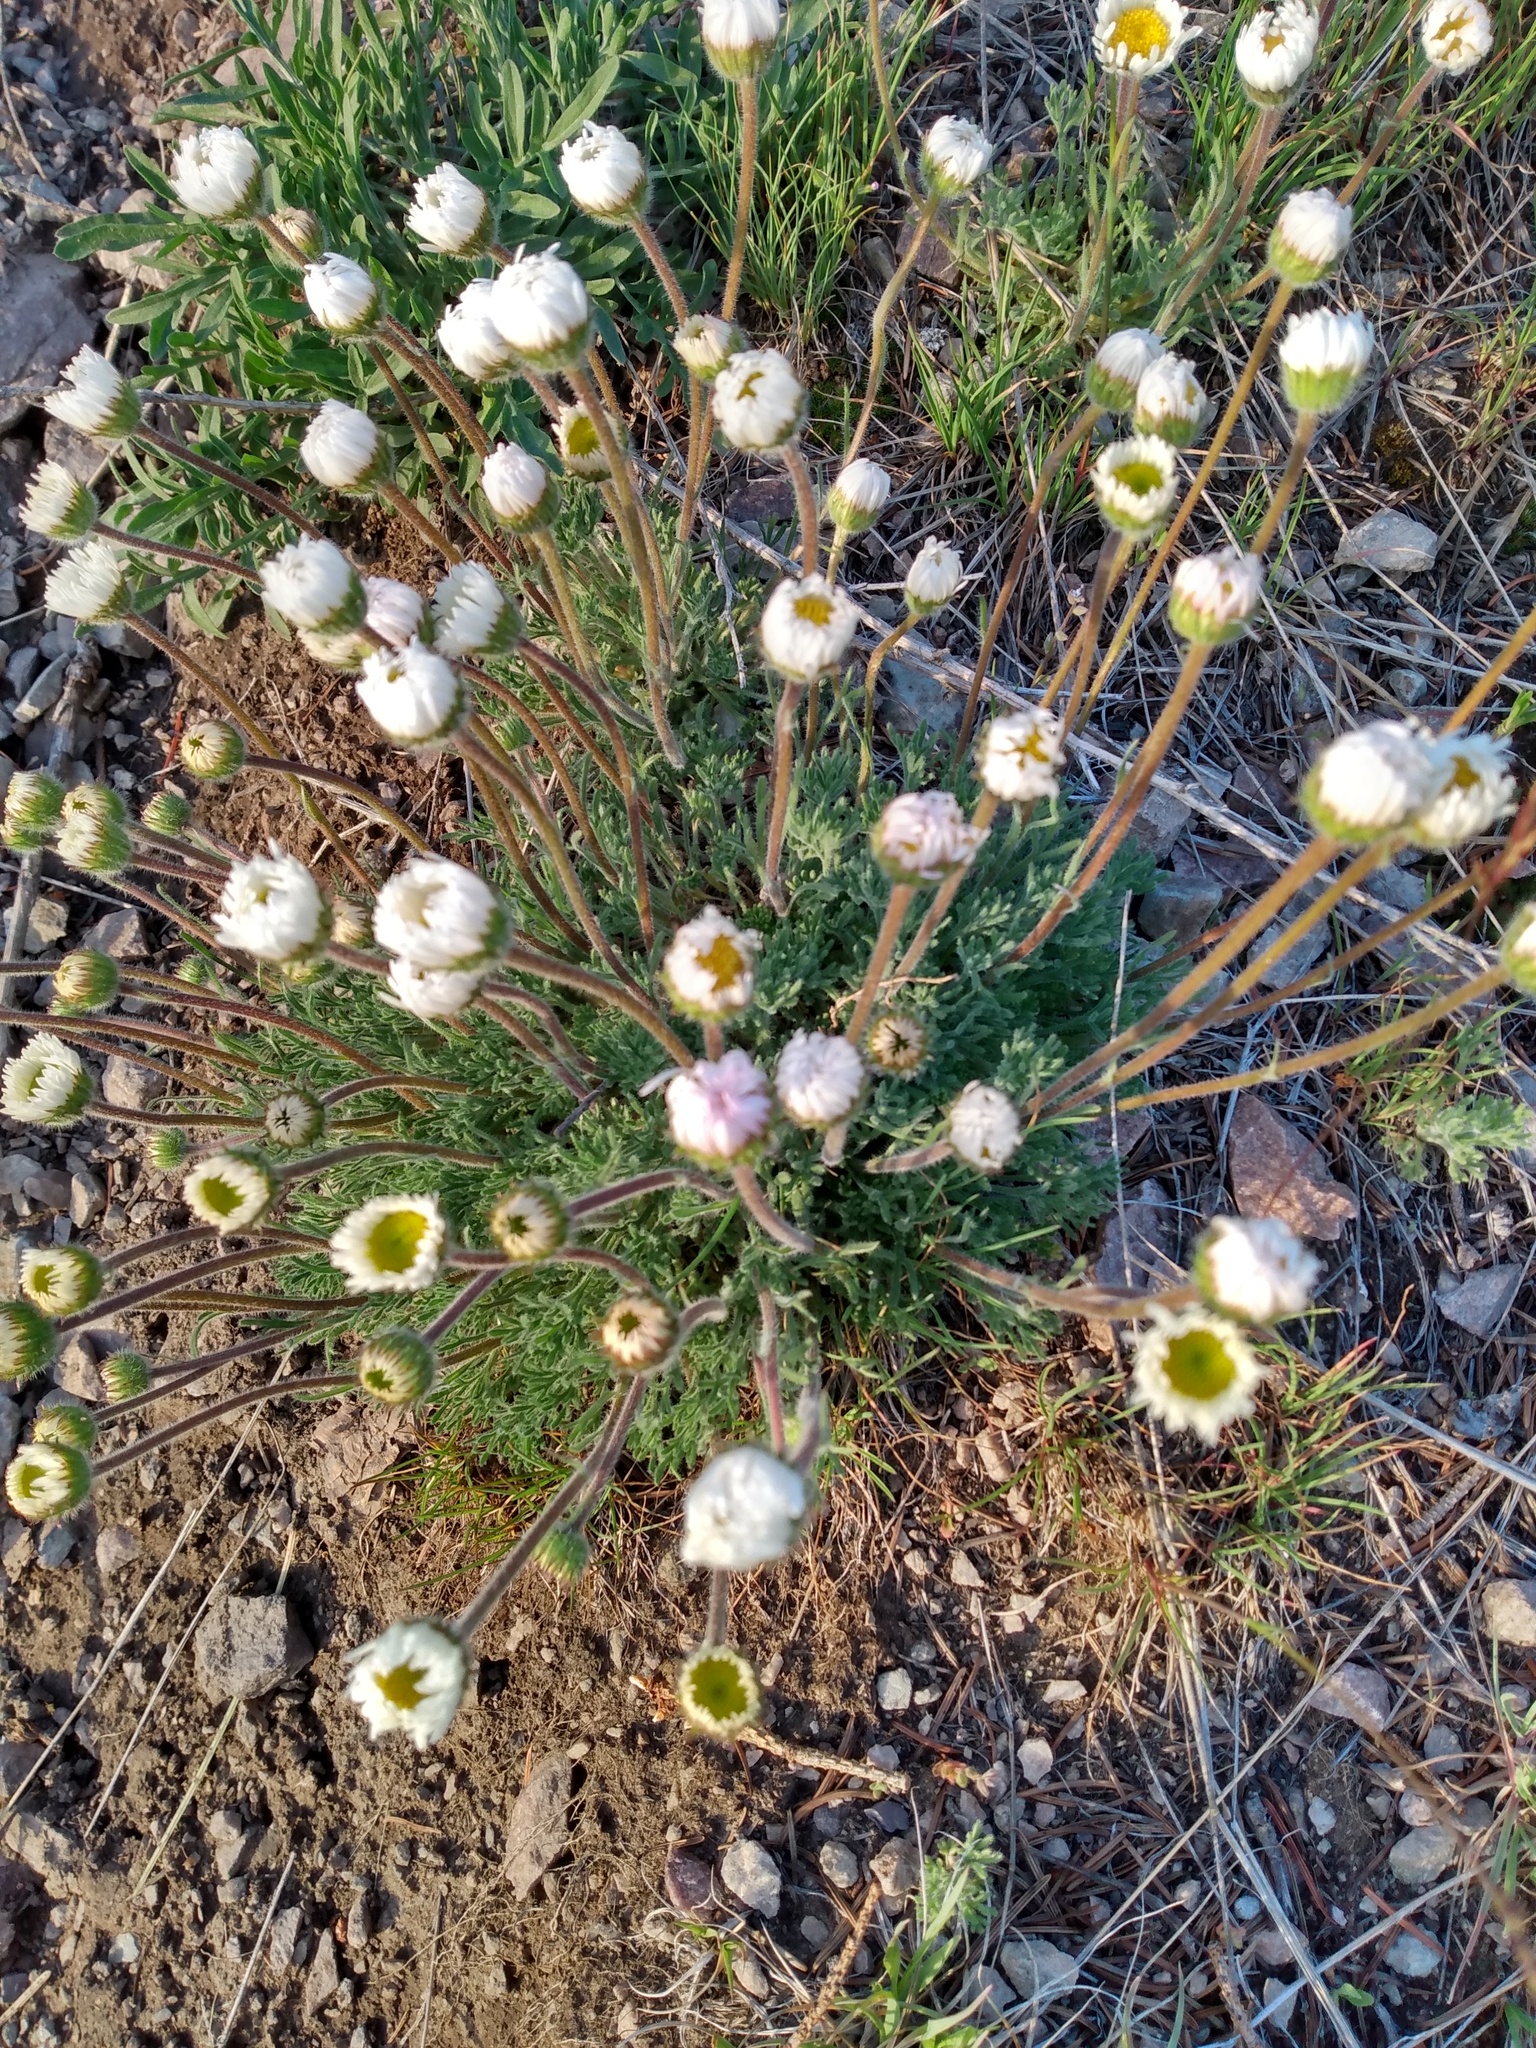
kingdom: Plantae
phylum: Tracheophyta
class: Magnoliopsida
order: Asterales
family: Asteraceae
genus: Erigeron
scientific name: Erigeron compositus
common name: Dwarf mountain fleabane
